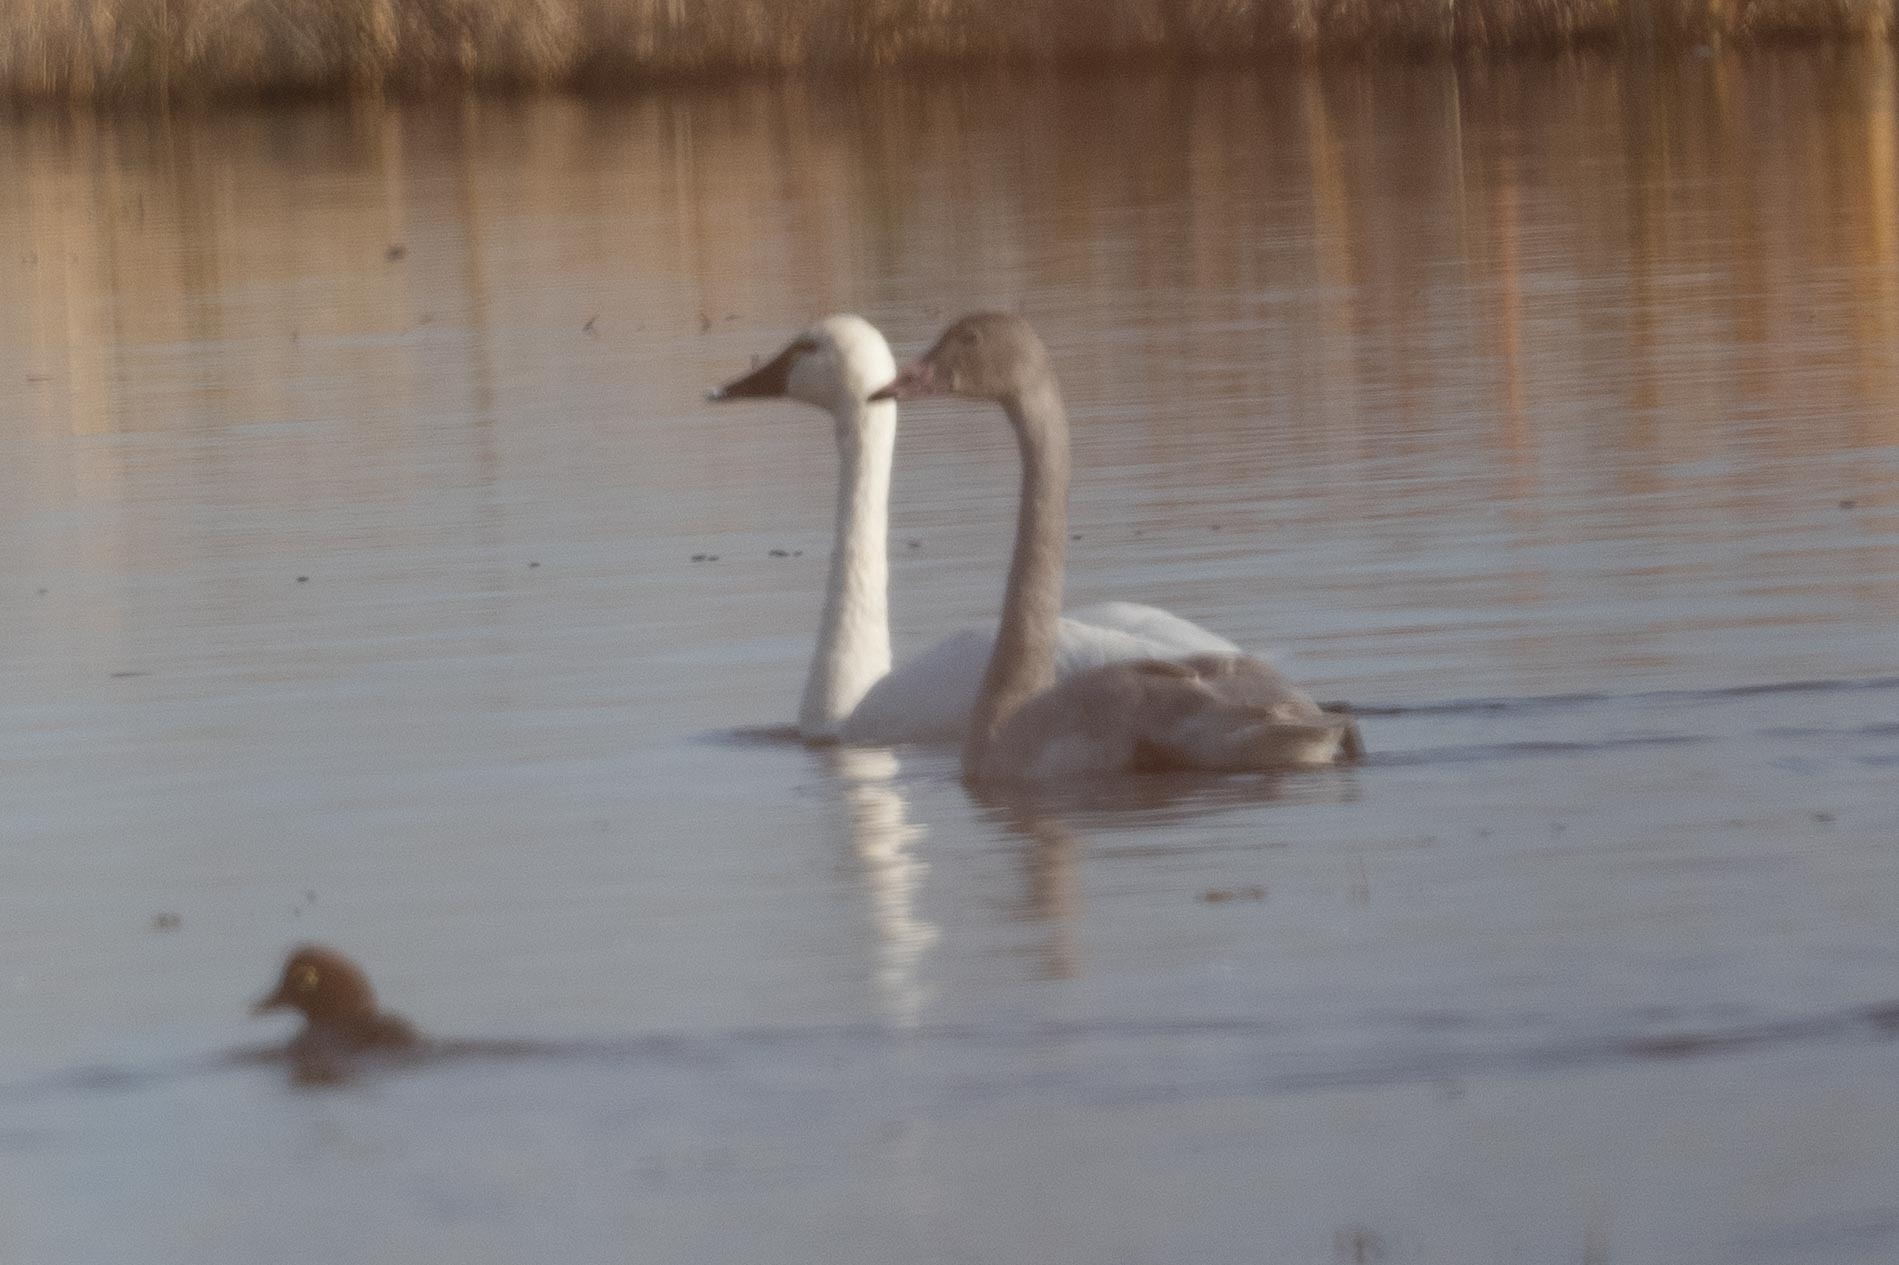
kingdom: Animalia
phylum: Chordata
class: Aves
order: Anseriformes
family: Anatidae
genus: Cygnus
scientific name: Cygnus columbianus
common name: Tundra swan
